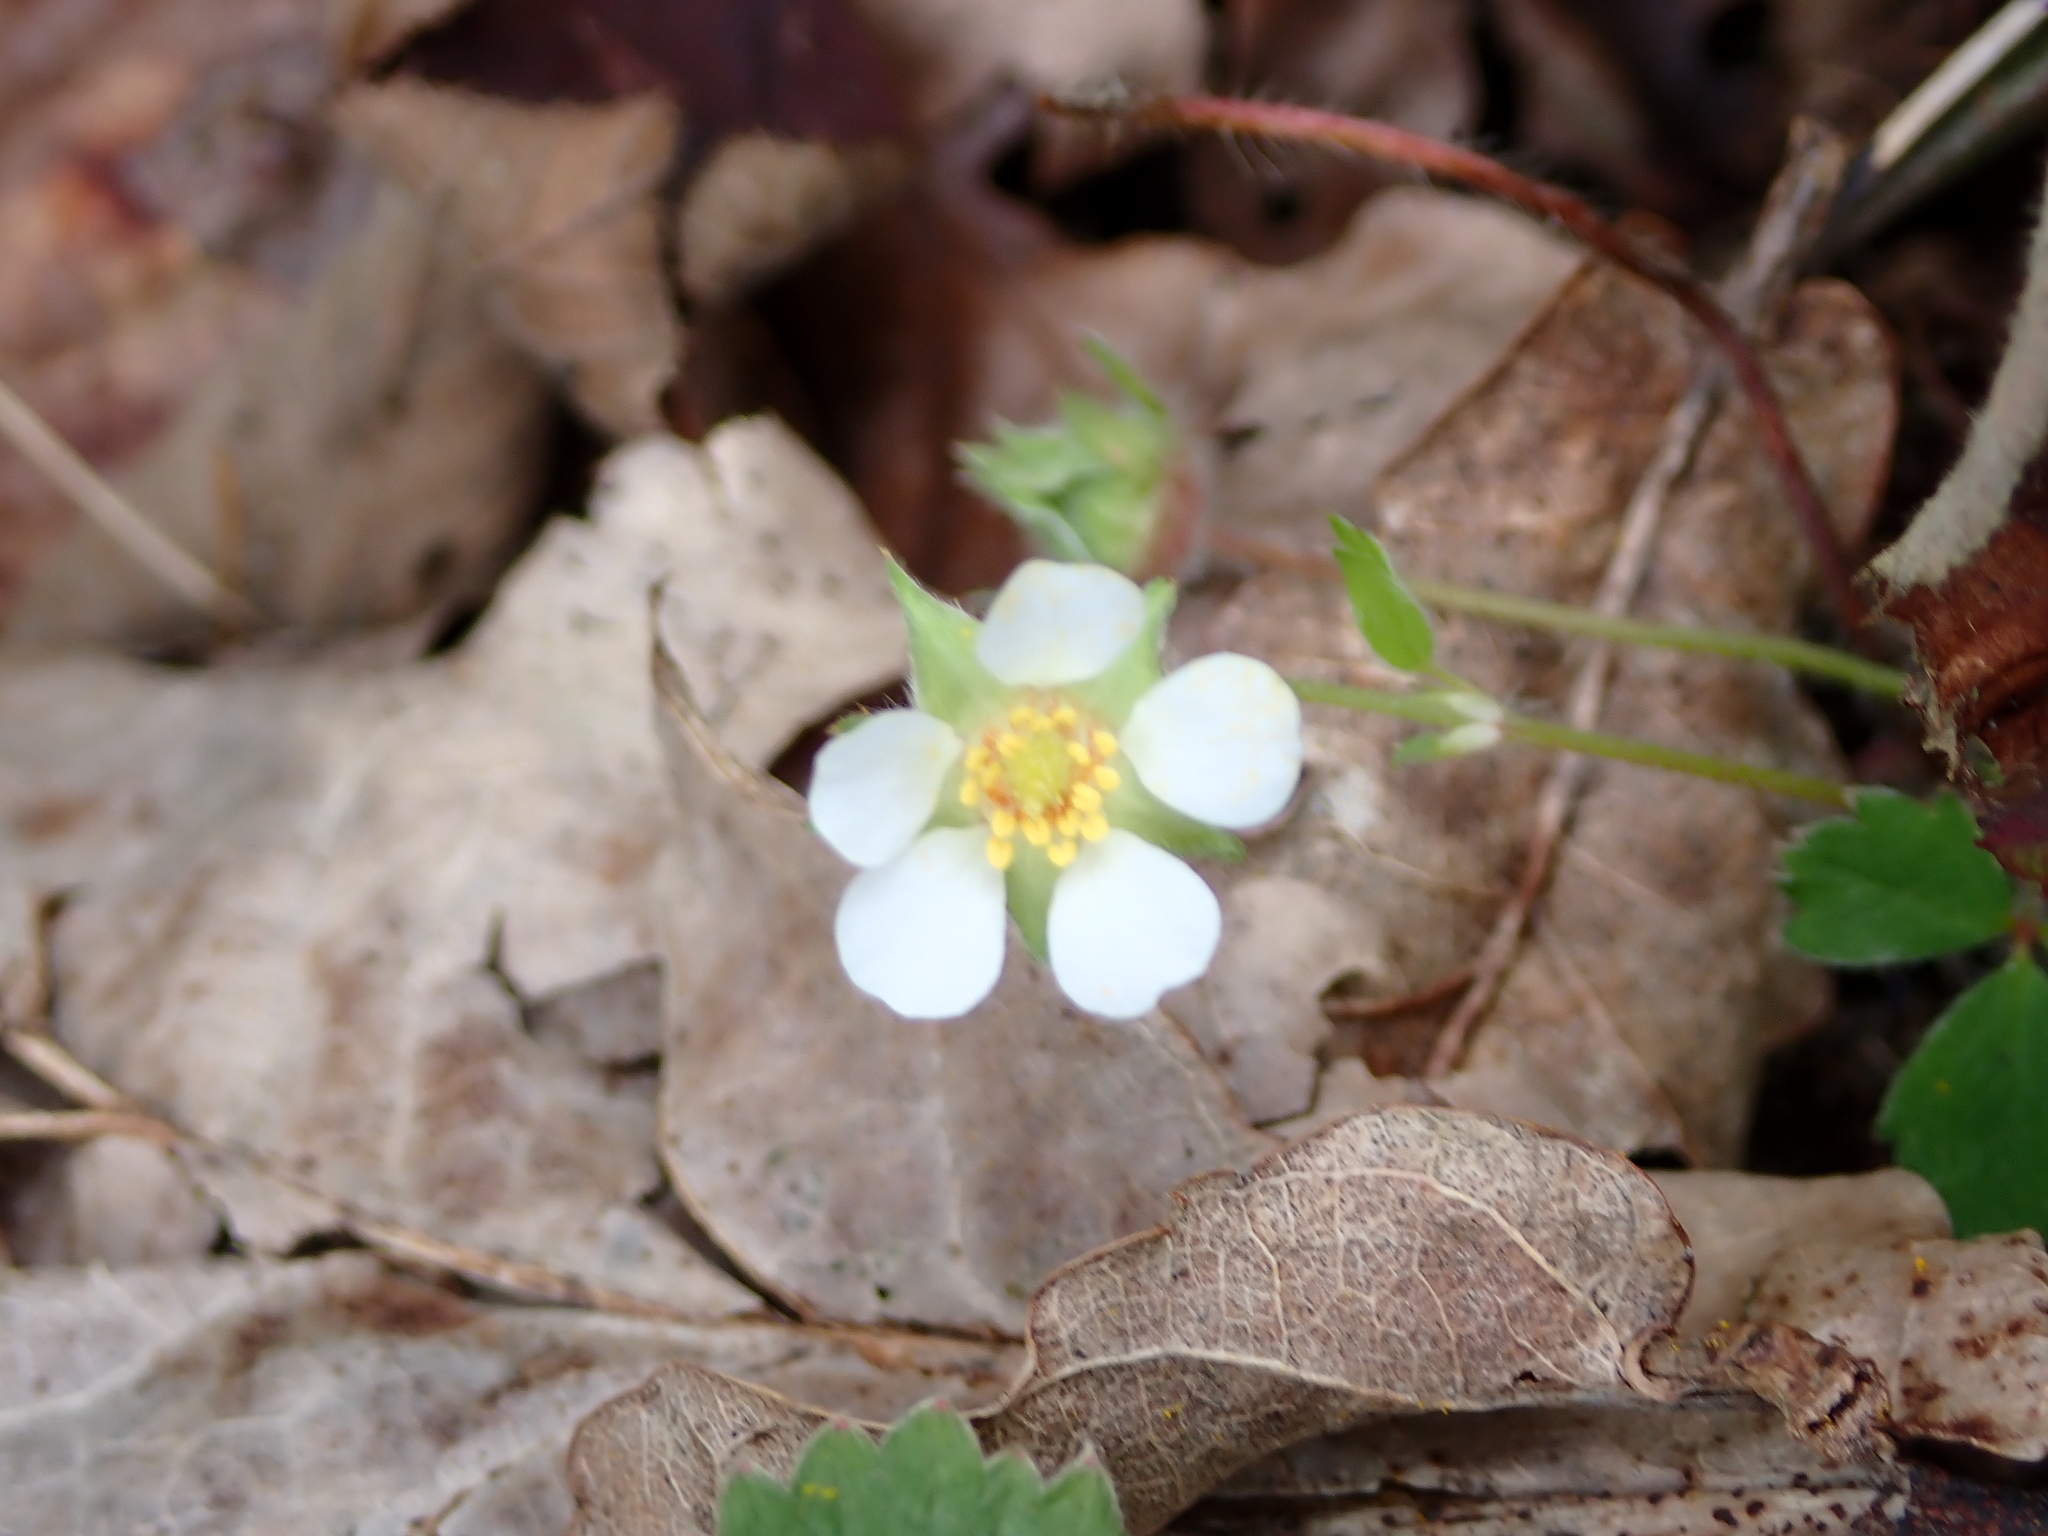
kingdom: Plantae
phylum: Tracheophyta
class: Magnoliopsida
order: Rosales
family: Rosaceae
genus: Potentilla
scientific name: Potentilla sterilis
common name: Barren strawberry
